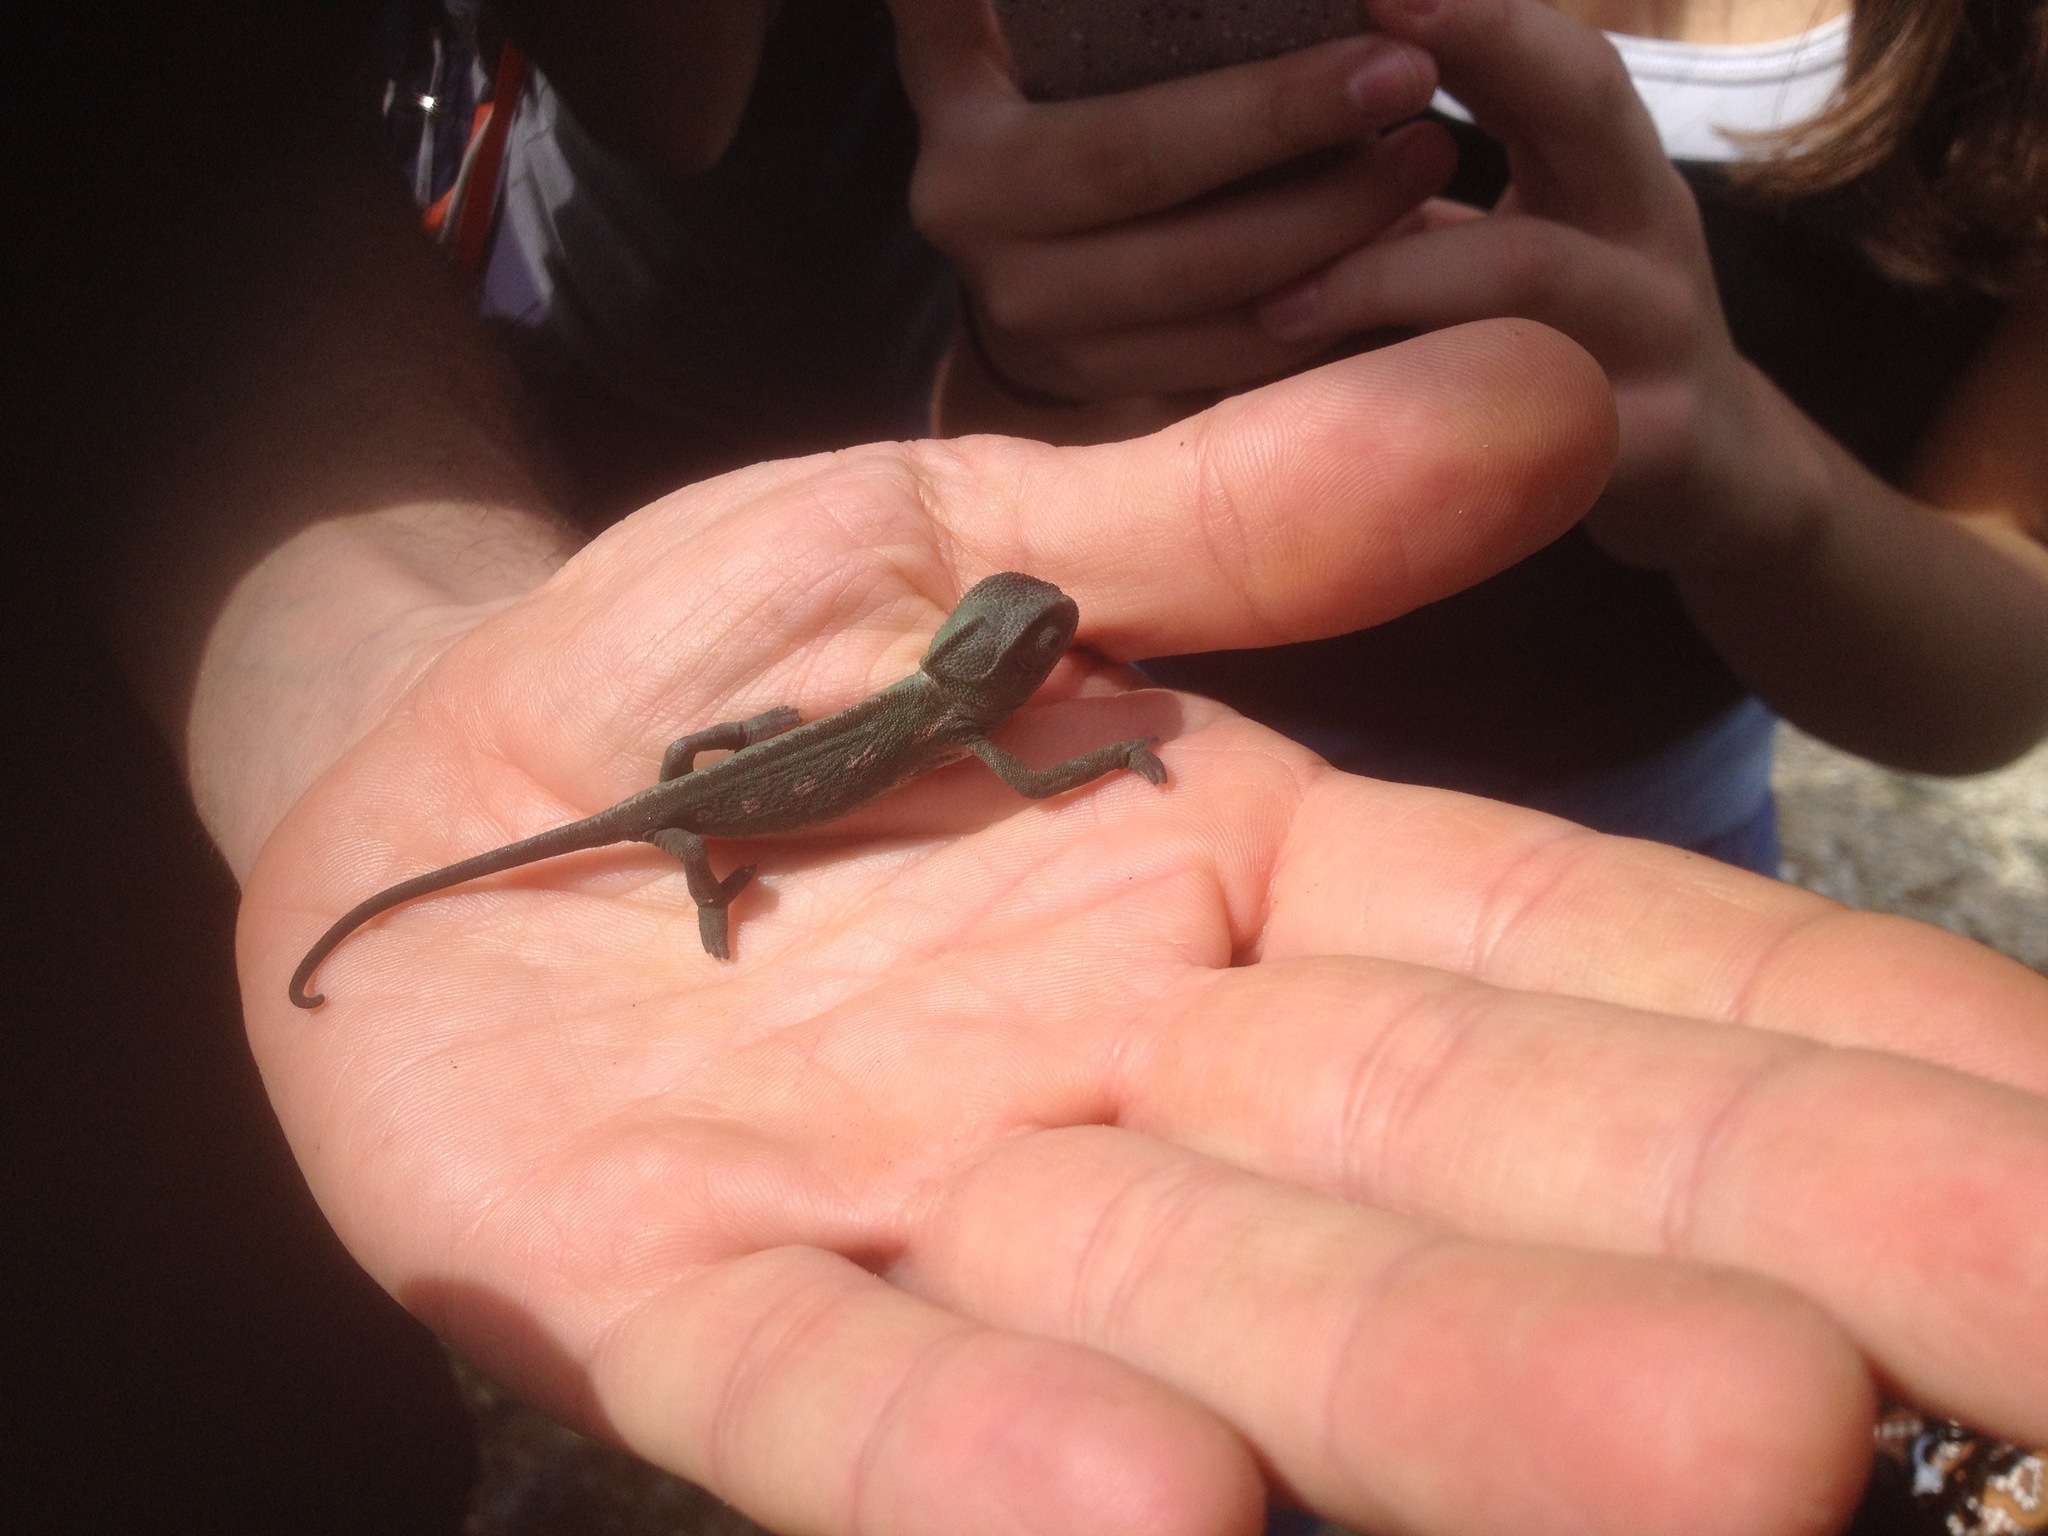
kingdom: Animalia
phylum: Chordata
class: Squamata
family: Chamaeleonidae
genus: Chamaeleo
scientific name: Chamaeleo chamaeleon
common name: Mediterranean chameleon
